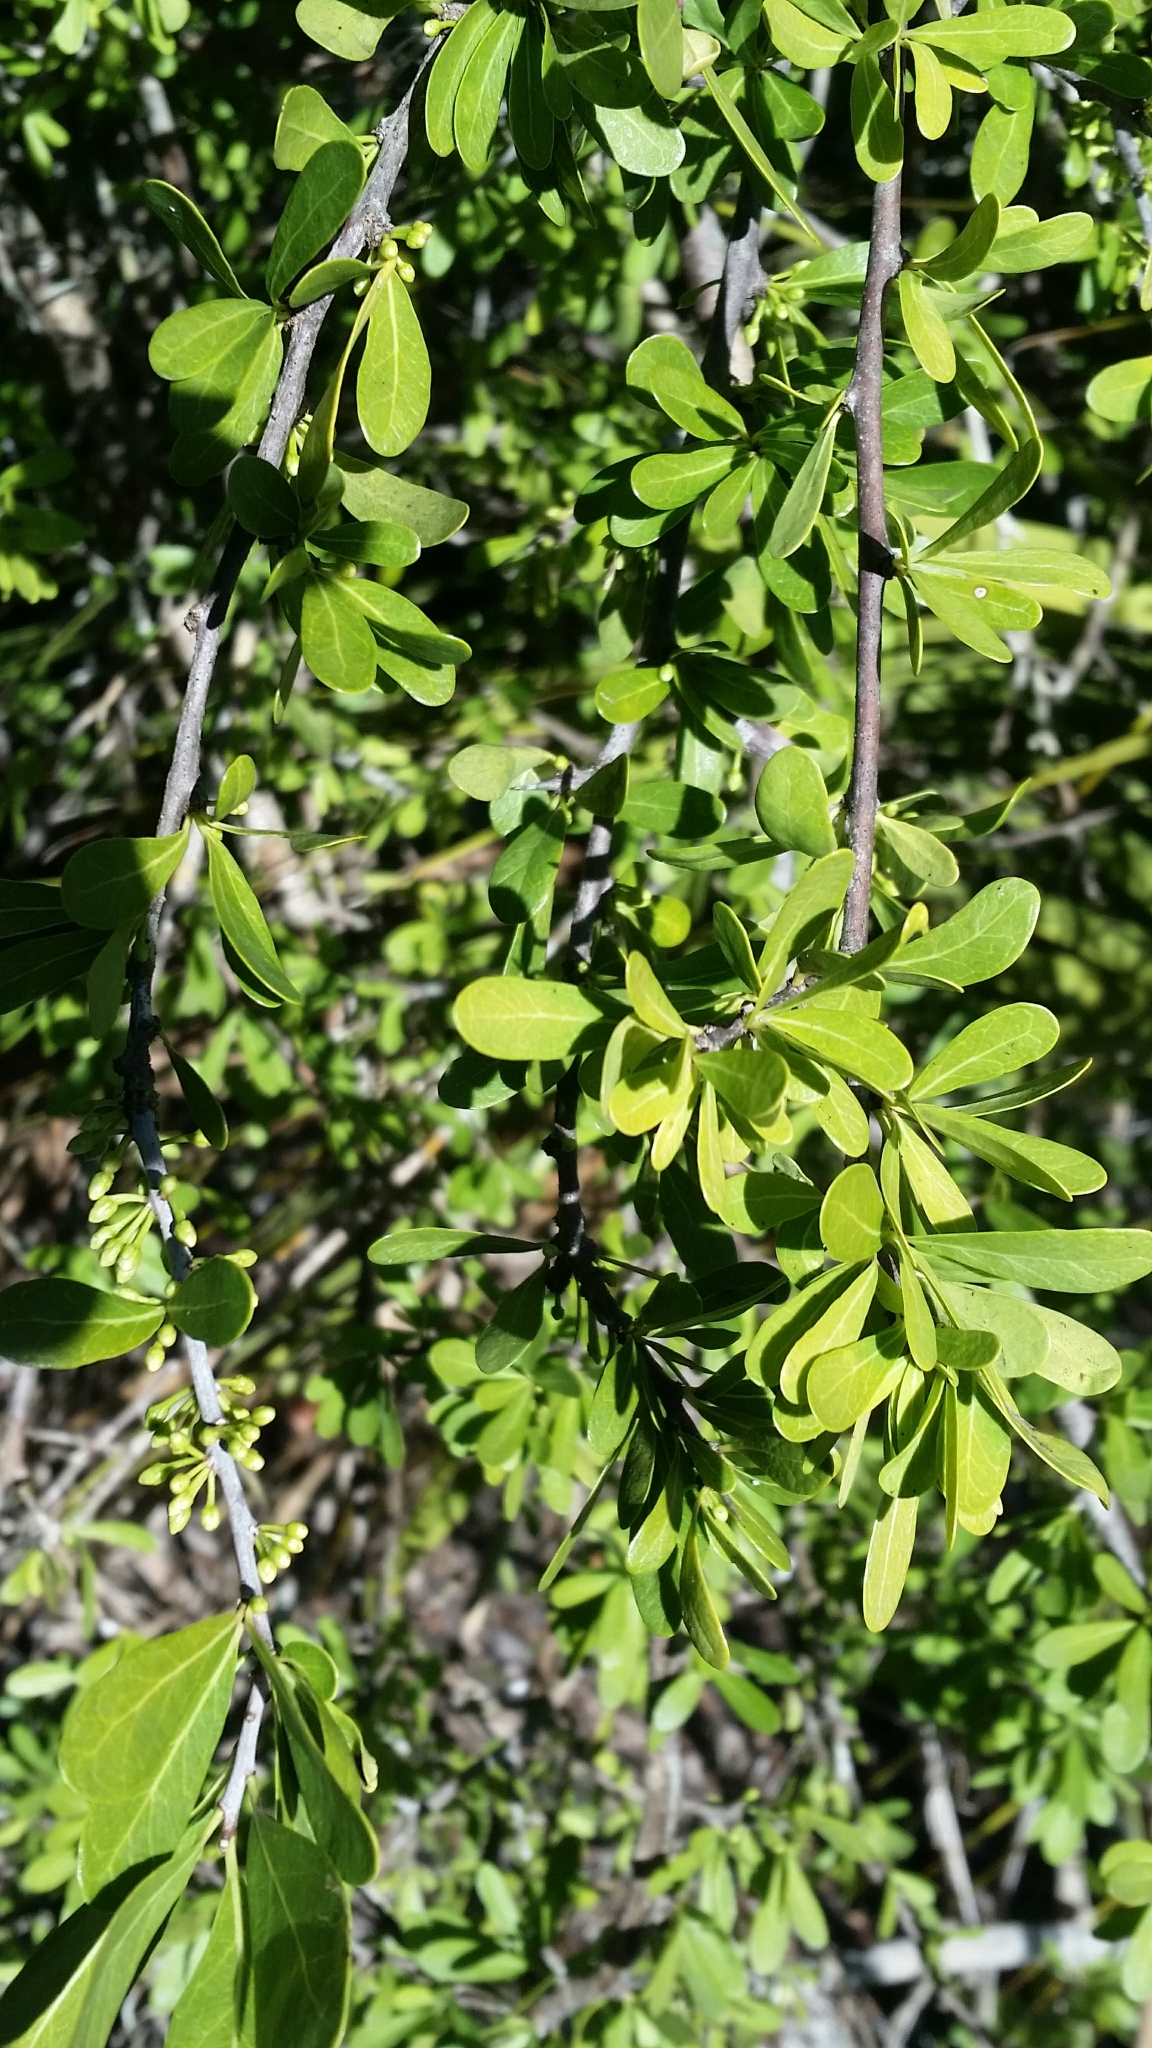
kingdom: Plantae
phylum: Tracheophyta
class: Magnoliopsida
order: Ericales
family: Sapotaceae
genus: Sideroxylon
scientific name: Sideroxylon celastrinum
